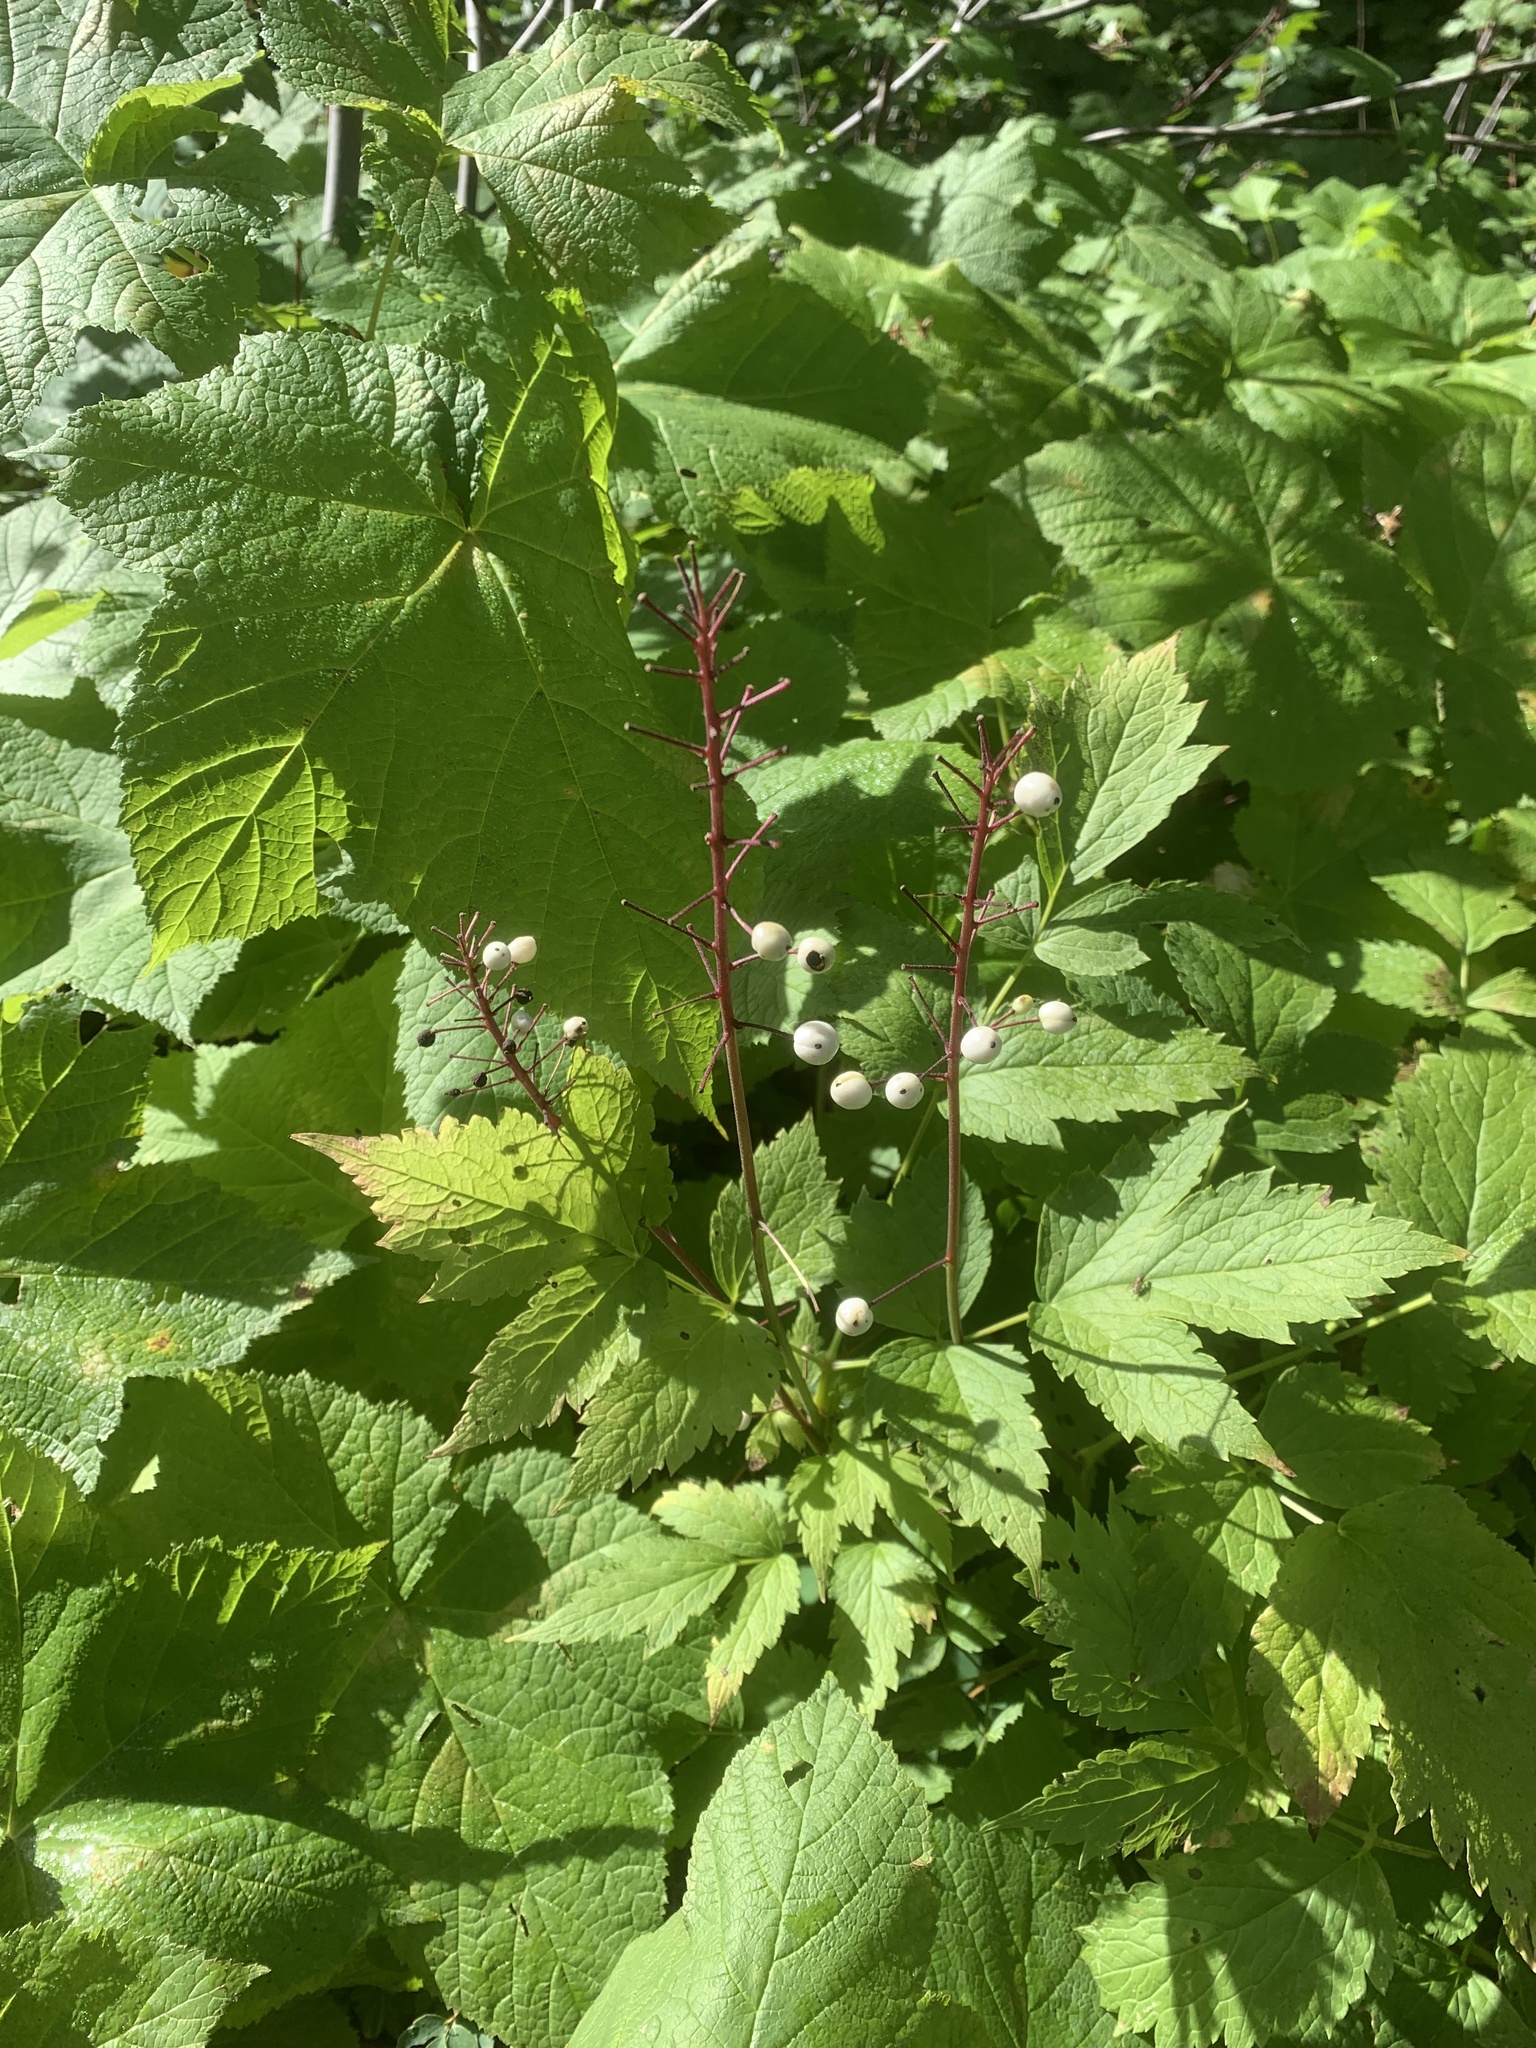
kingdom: Plantae
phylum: Tracheophyta
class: Magnoliopsida
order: Ranunculales
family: Ranunculaceae
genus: Actaea
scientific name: Actaea rubra
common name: Red baneberry
